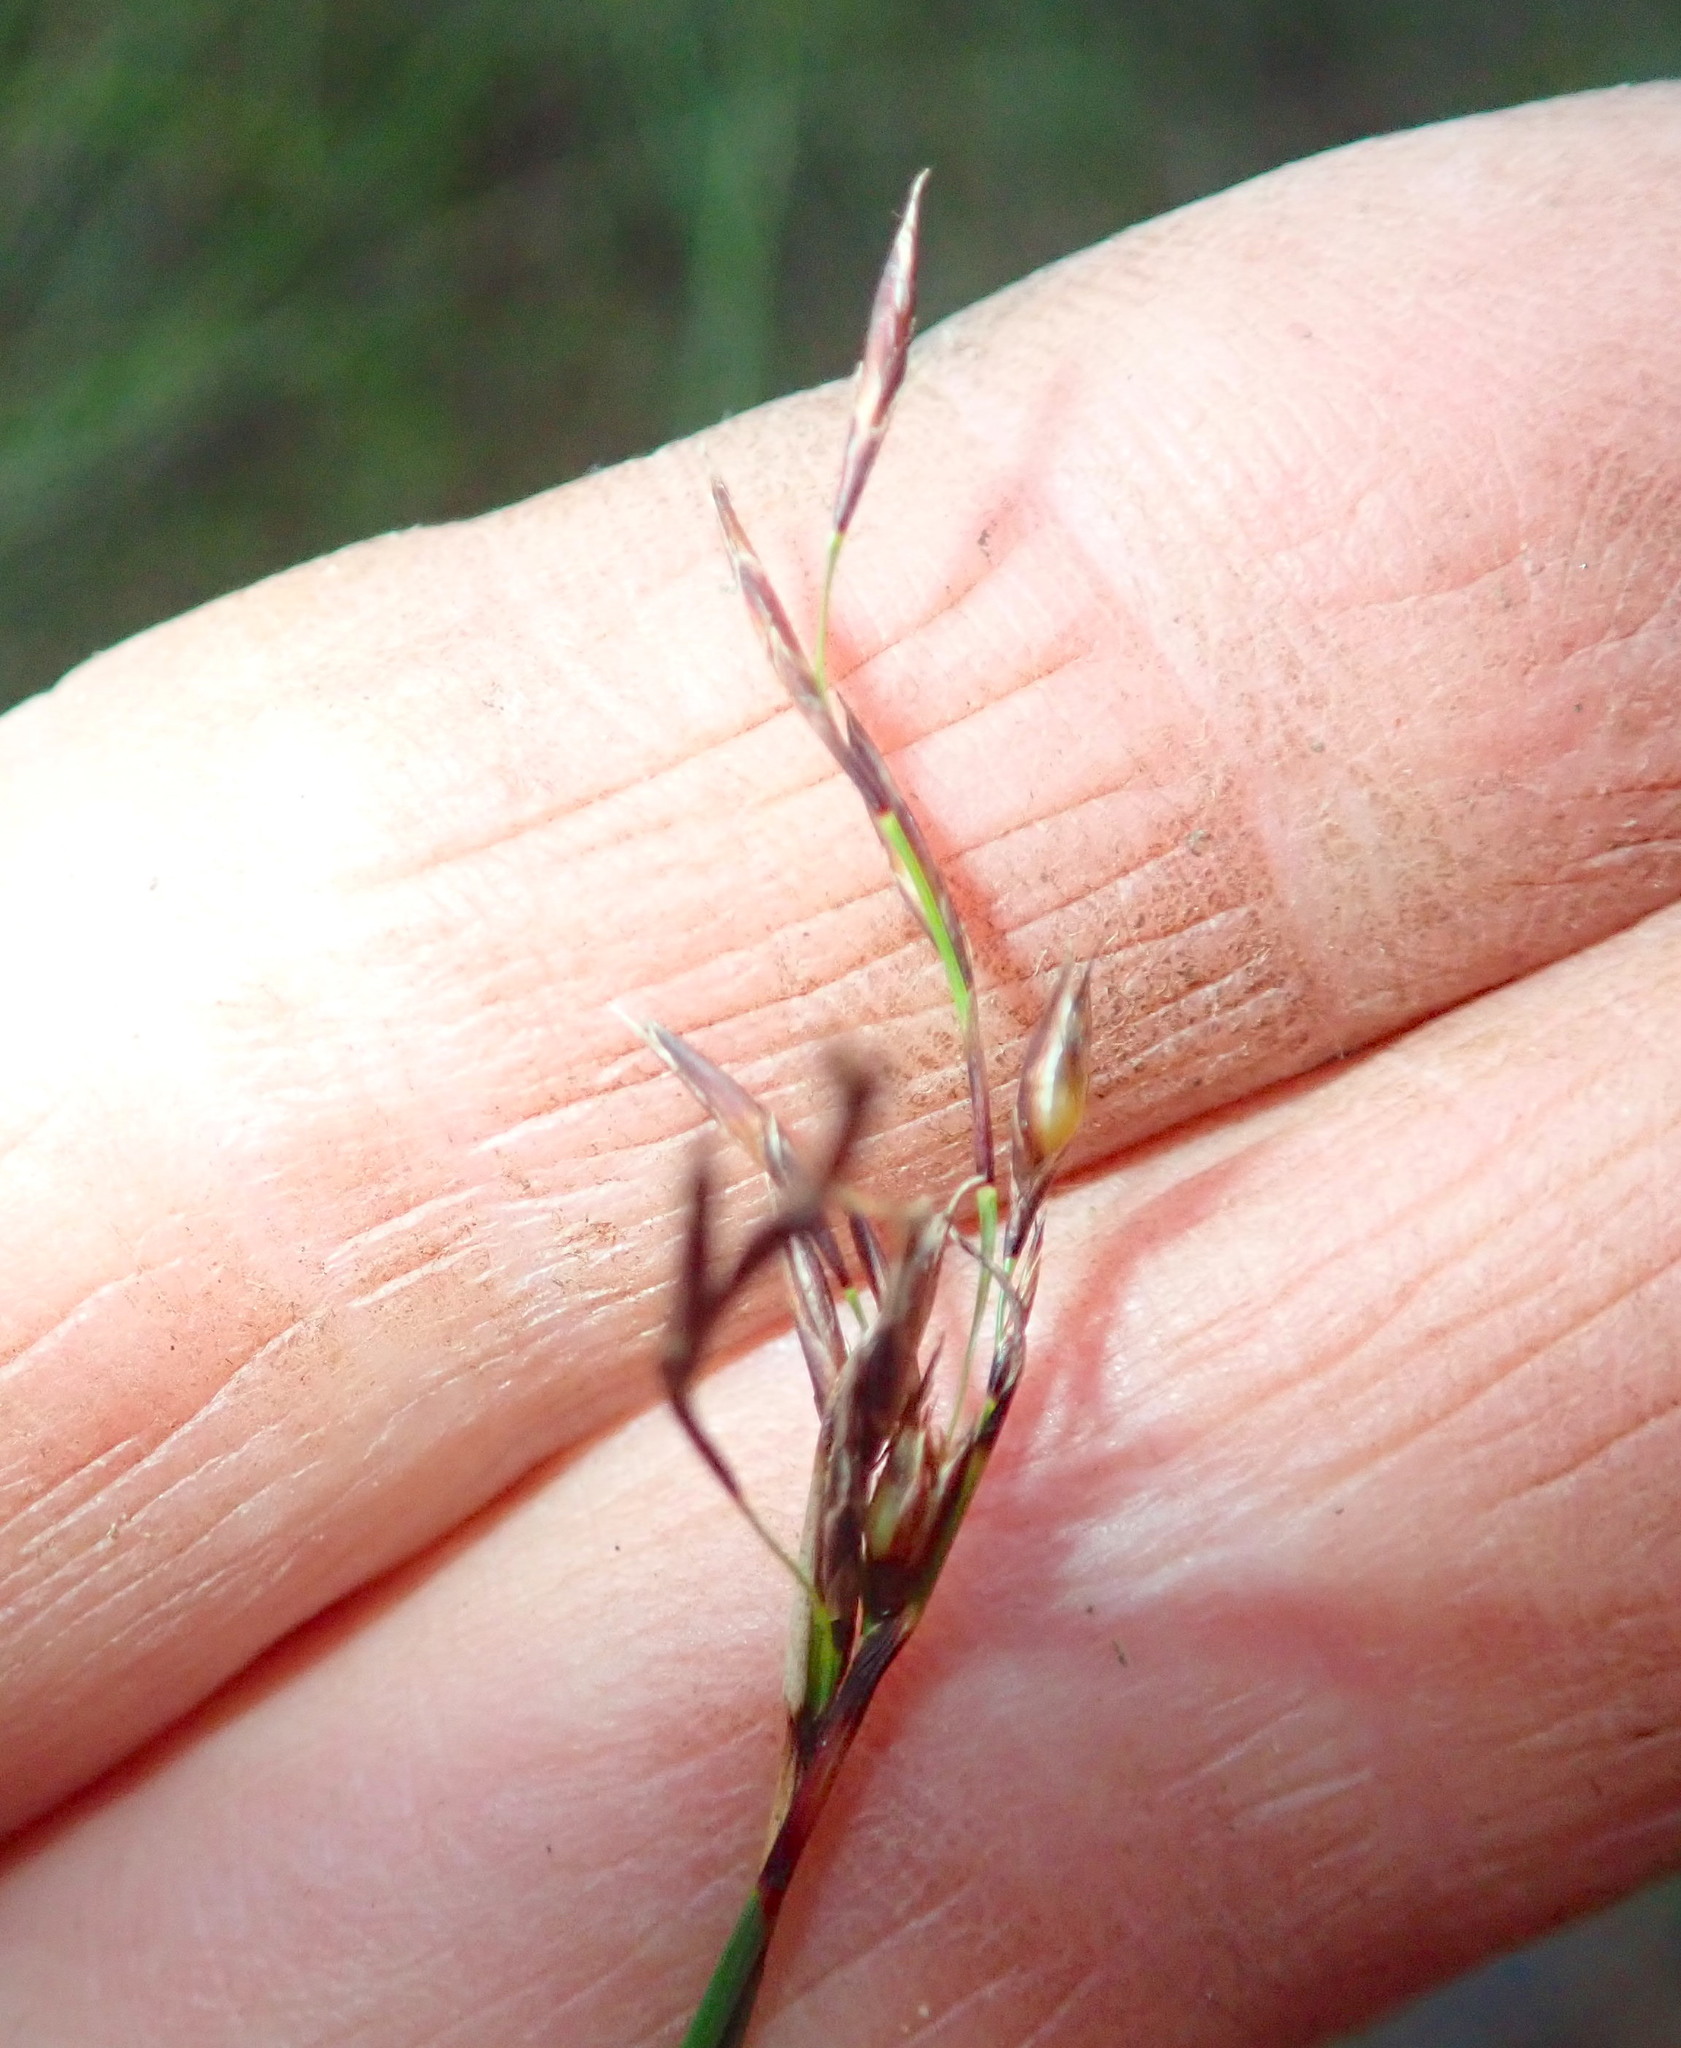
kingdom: Plantae
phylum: Tracheophyta
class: Liliopsida
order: Poales
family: Cyperaceae
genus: Schoenus
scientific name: Schoenus tendo
